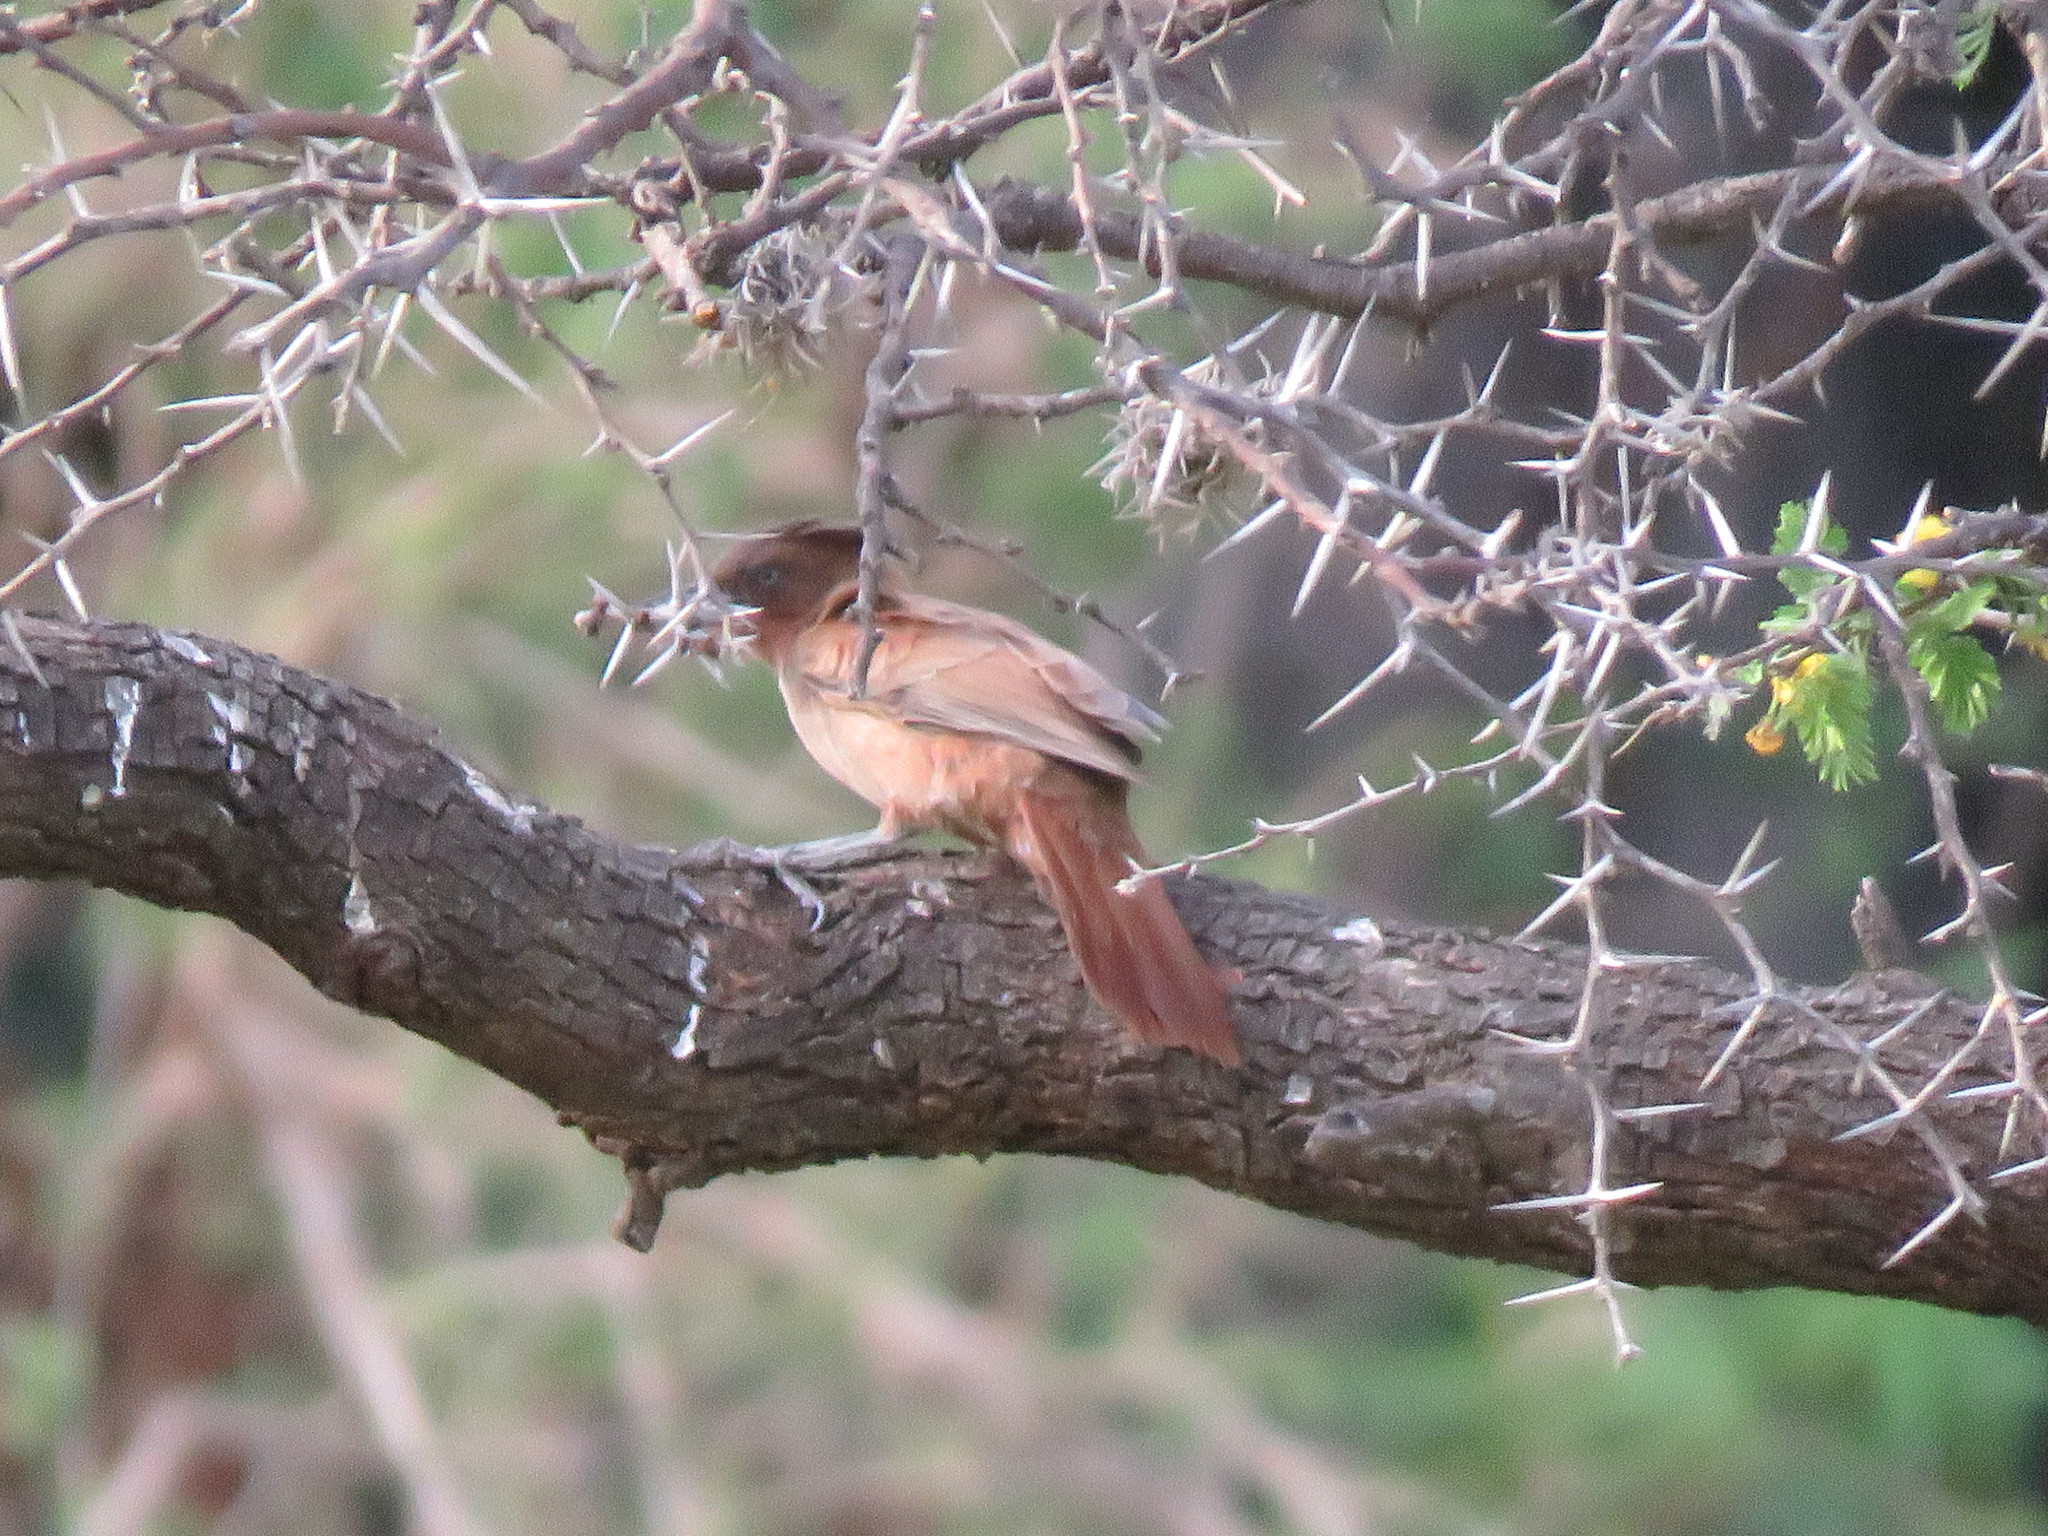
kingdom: Animalia
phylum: Chordata
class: Aves
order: Passeriformes
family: Furnariidae
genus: Pseudoseisura
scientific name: Pseudoseisura lophotes
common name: Brown cacholote
